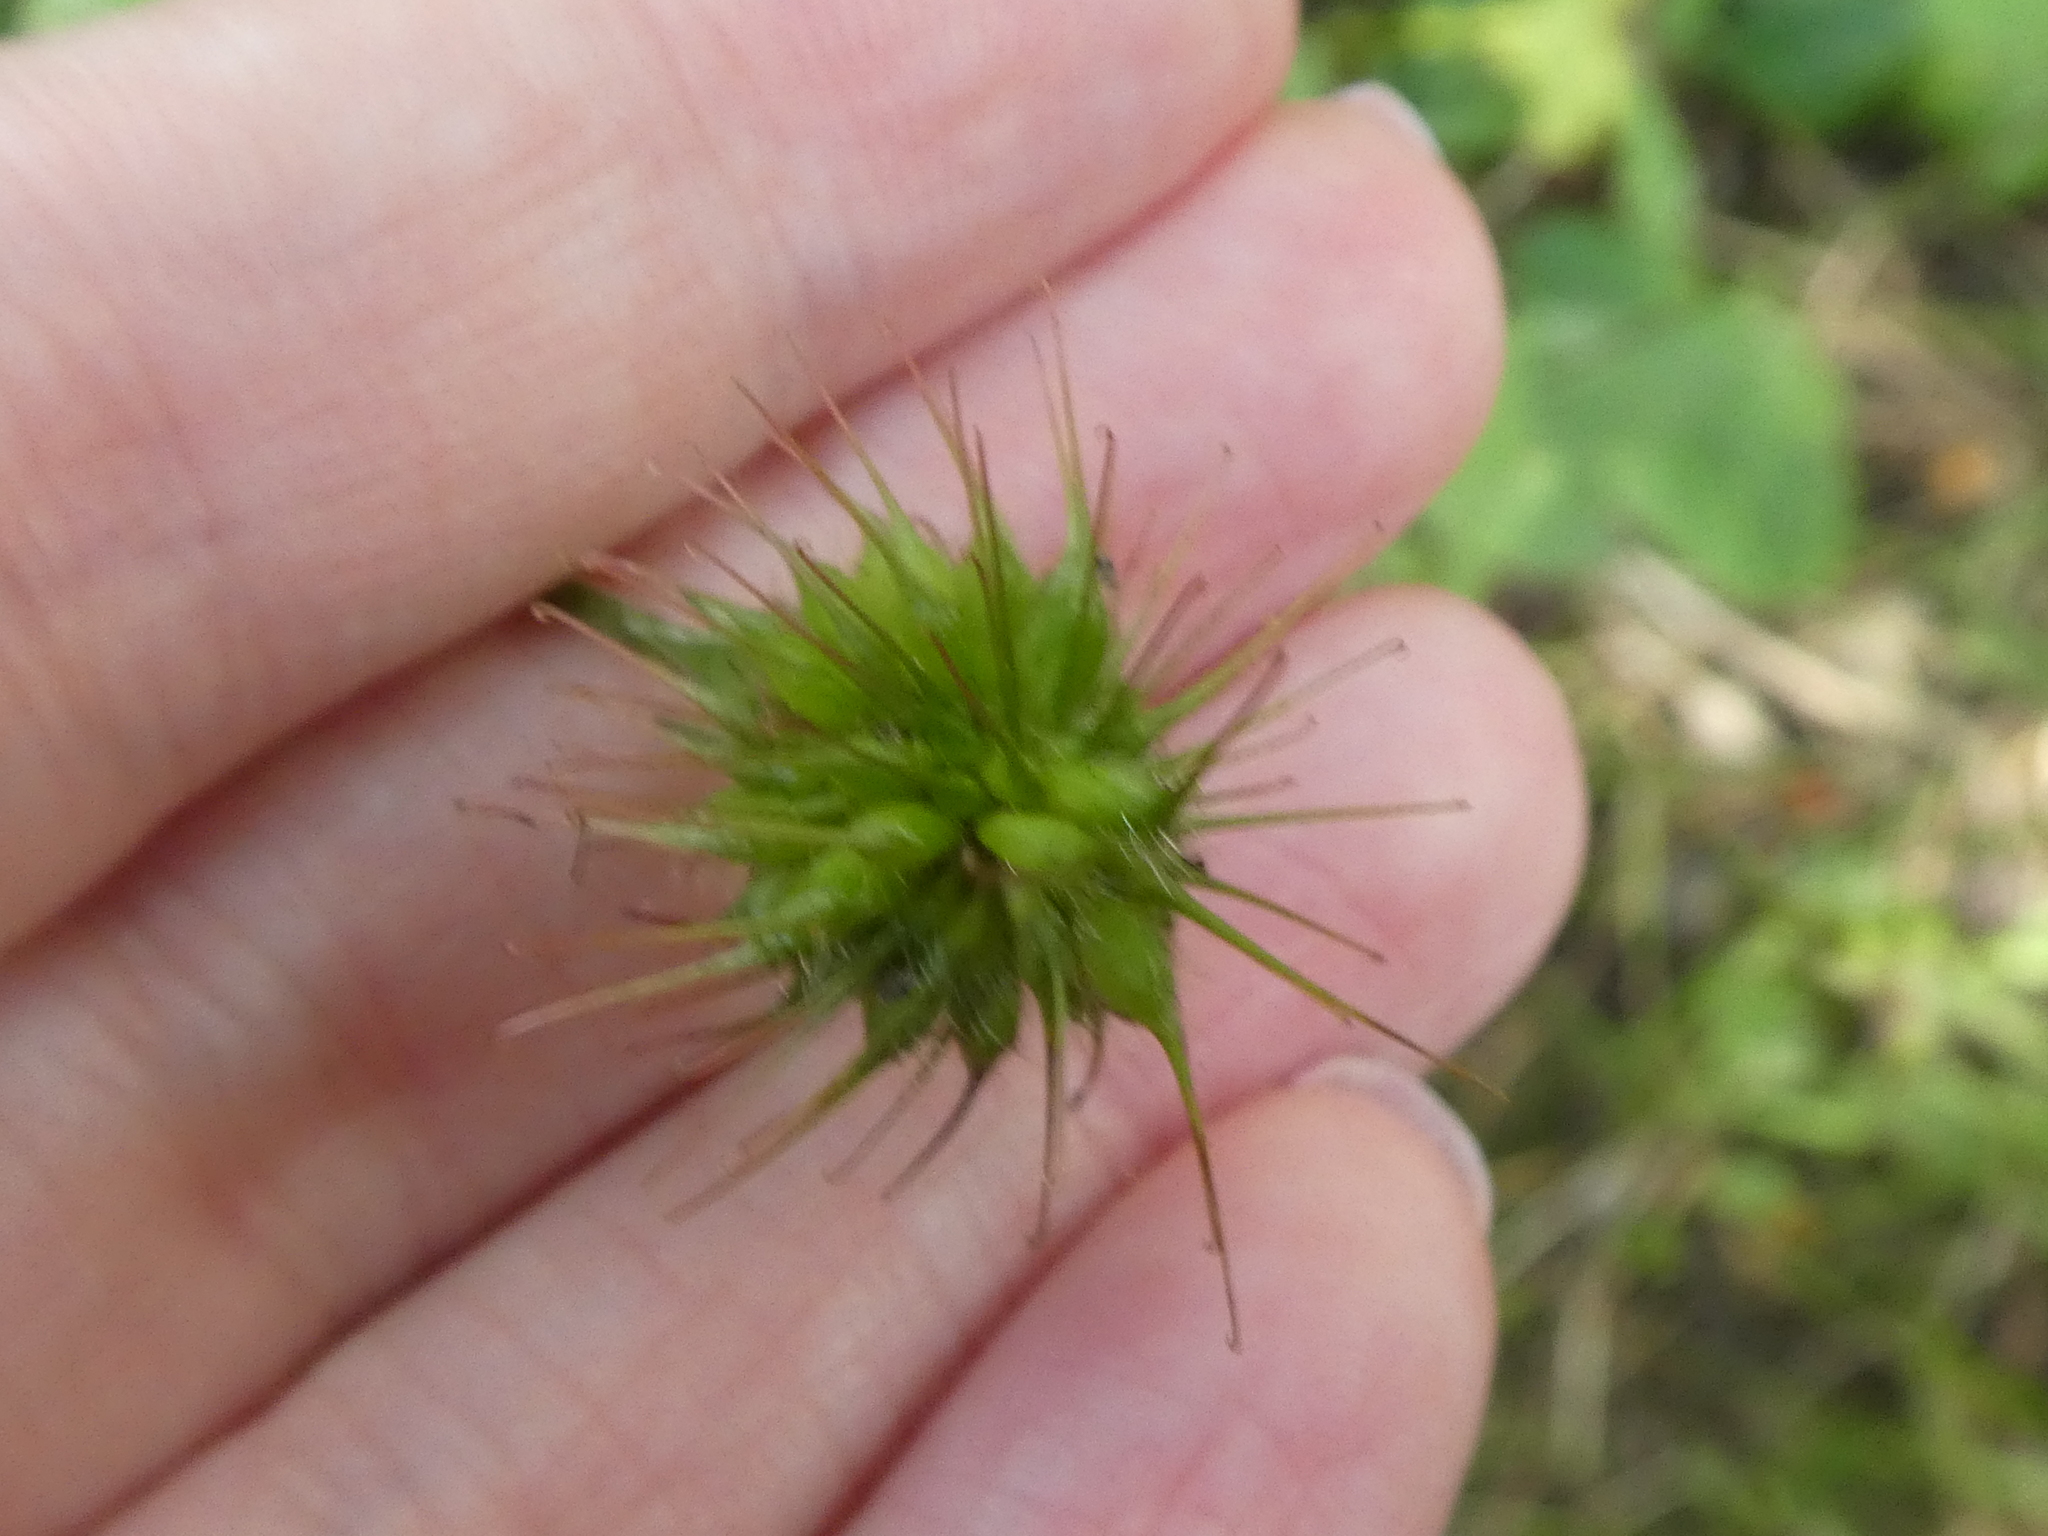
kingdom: Plantae
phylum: Tracheophyta
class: Magnoliopsida
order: Rosales
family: Rosaceae
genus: Geum
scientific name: Geum urbanum
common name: Wood avens
